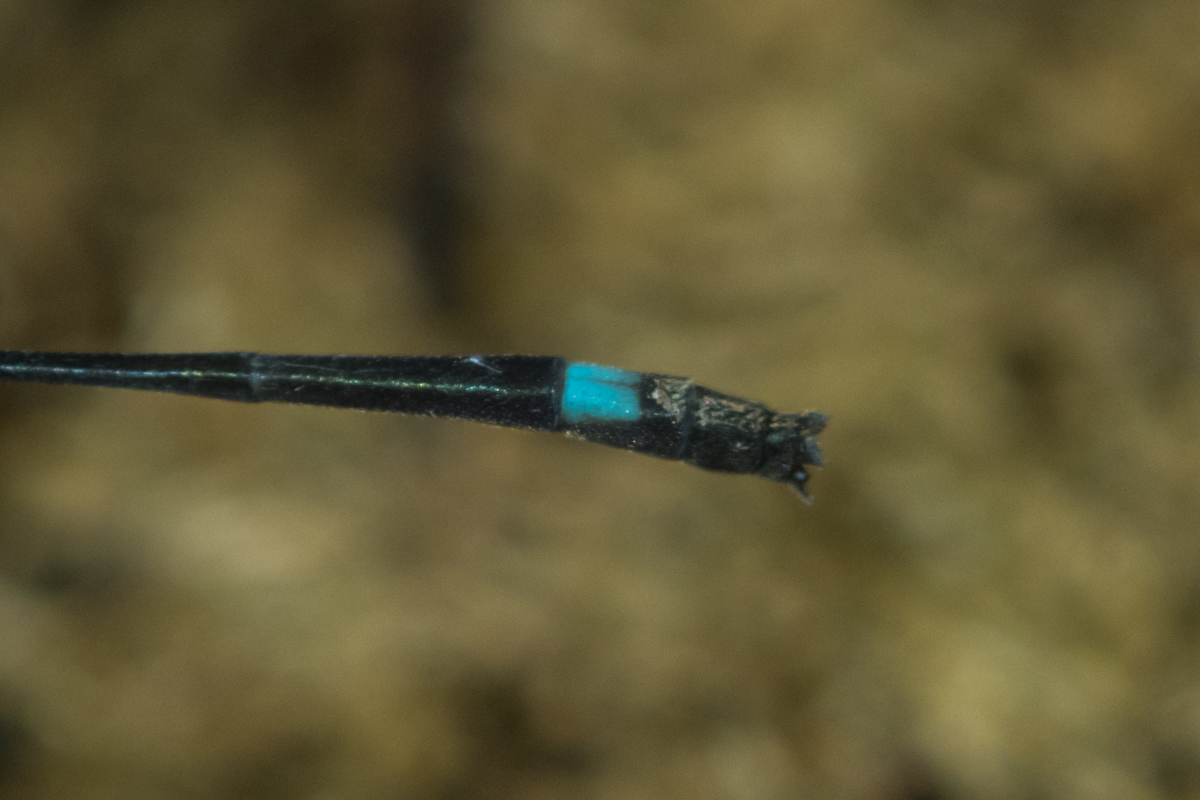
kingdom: Animalia
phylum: Arthropoda
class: Insecta
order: Odonata
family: Coenagrionidae
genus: Mortonagrion
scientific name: Mortonagrion falcatum
